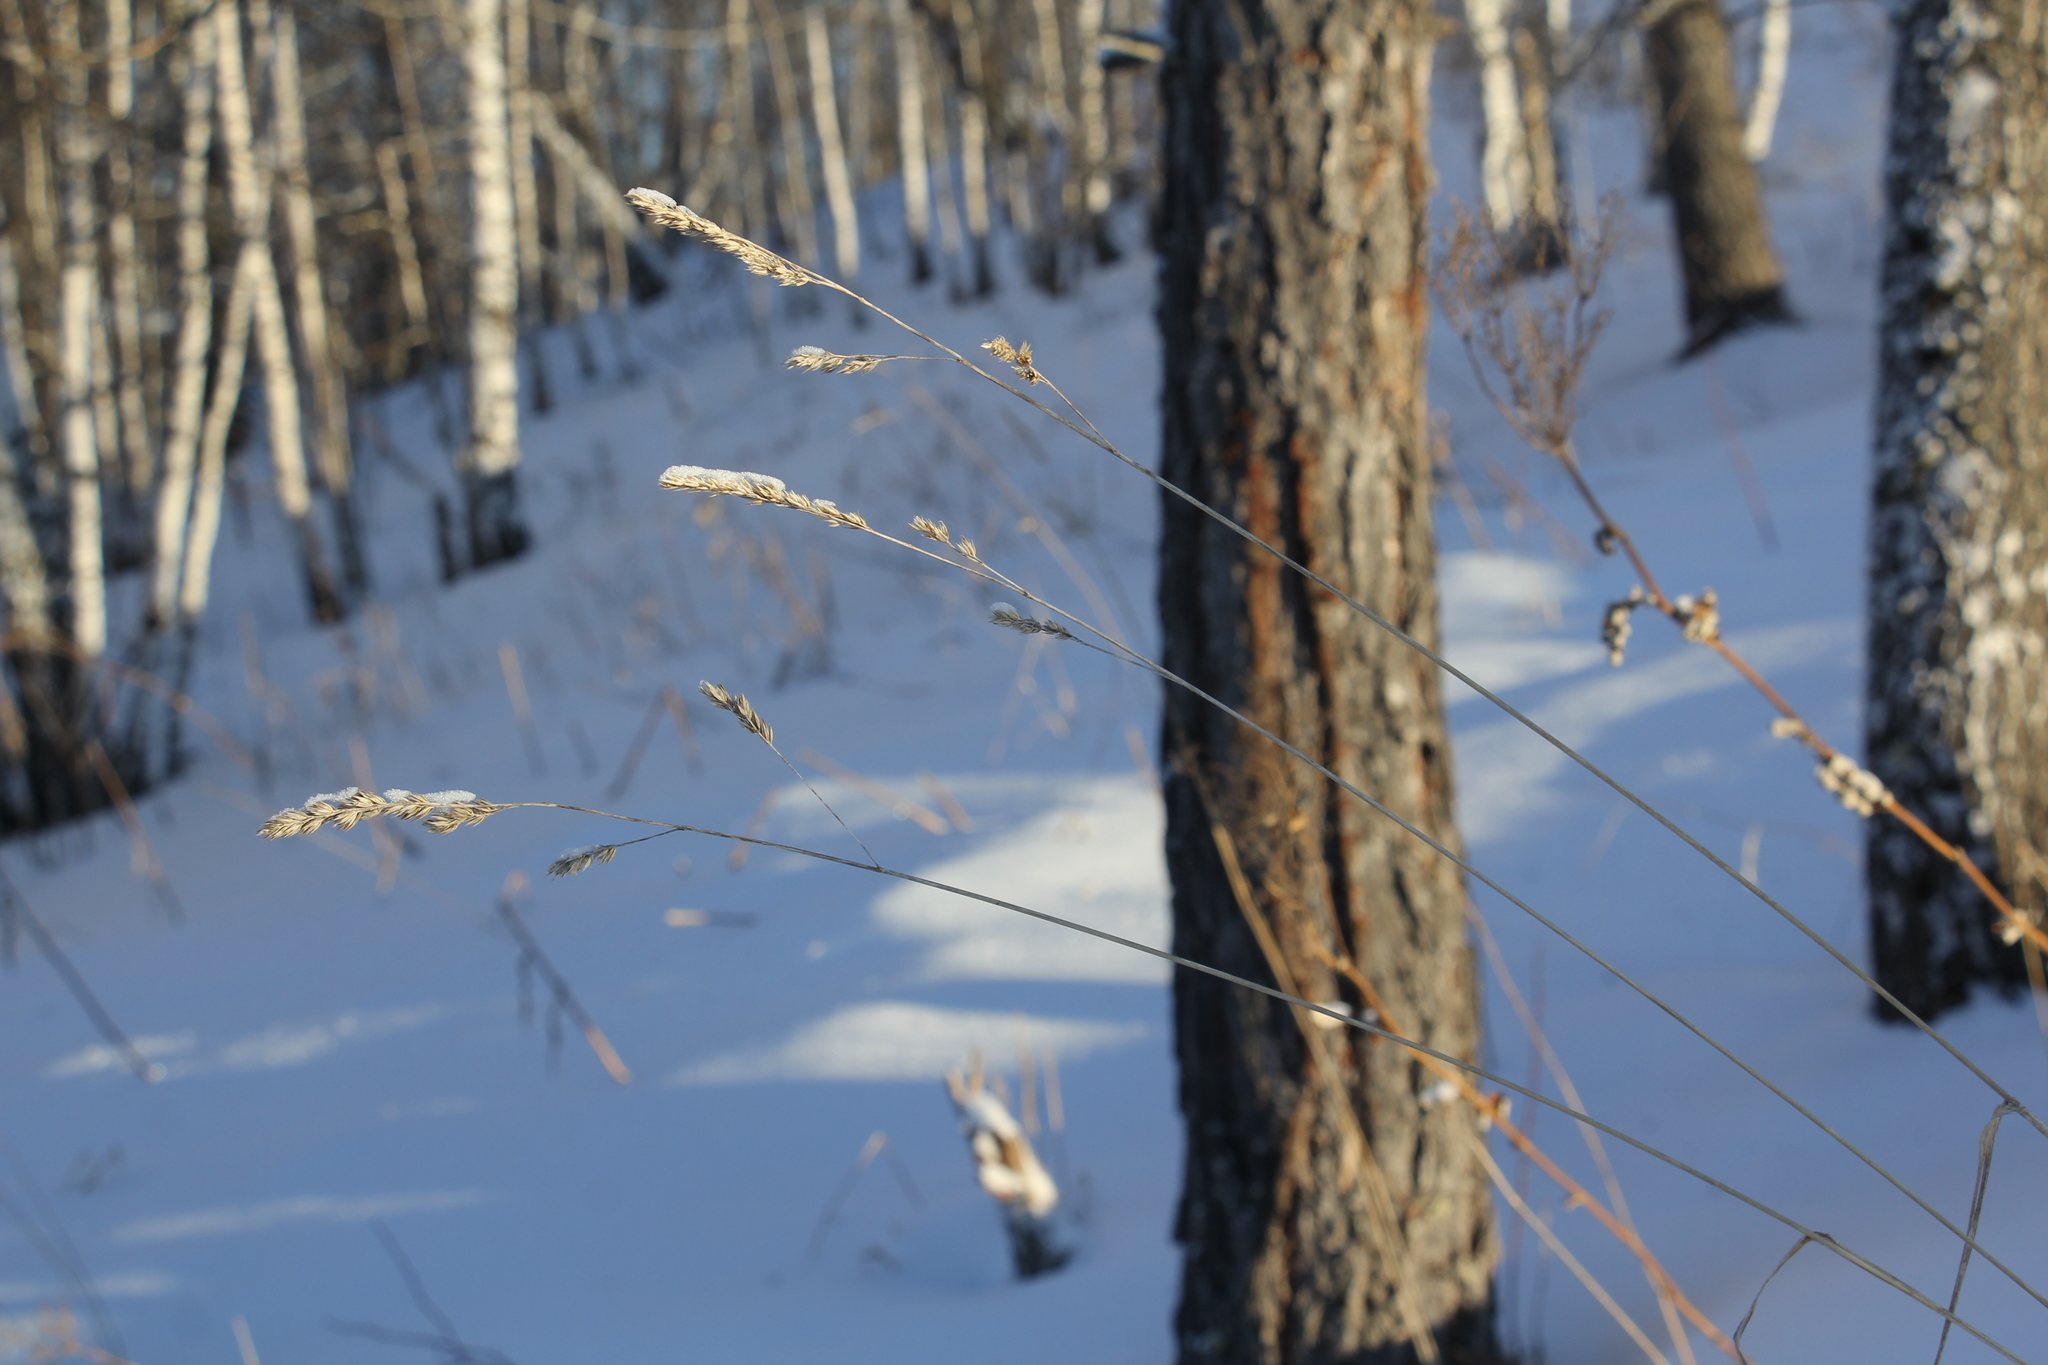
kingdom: Plantae
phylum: Tracheophyta
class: Liliopsida
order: Poales
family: Poaceae
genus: Dactylis
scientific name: Dactylis glomerata
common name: Orchardgrass
